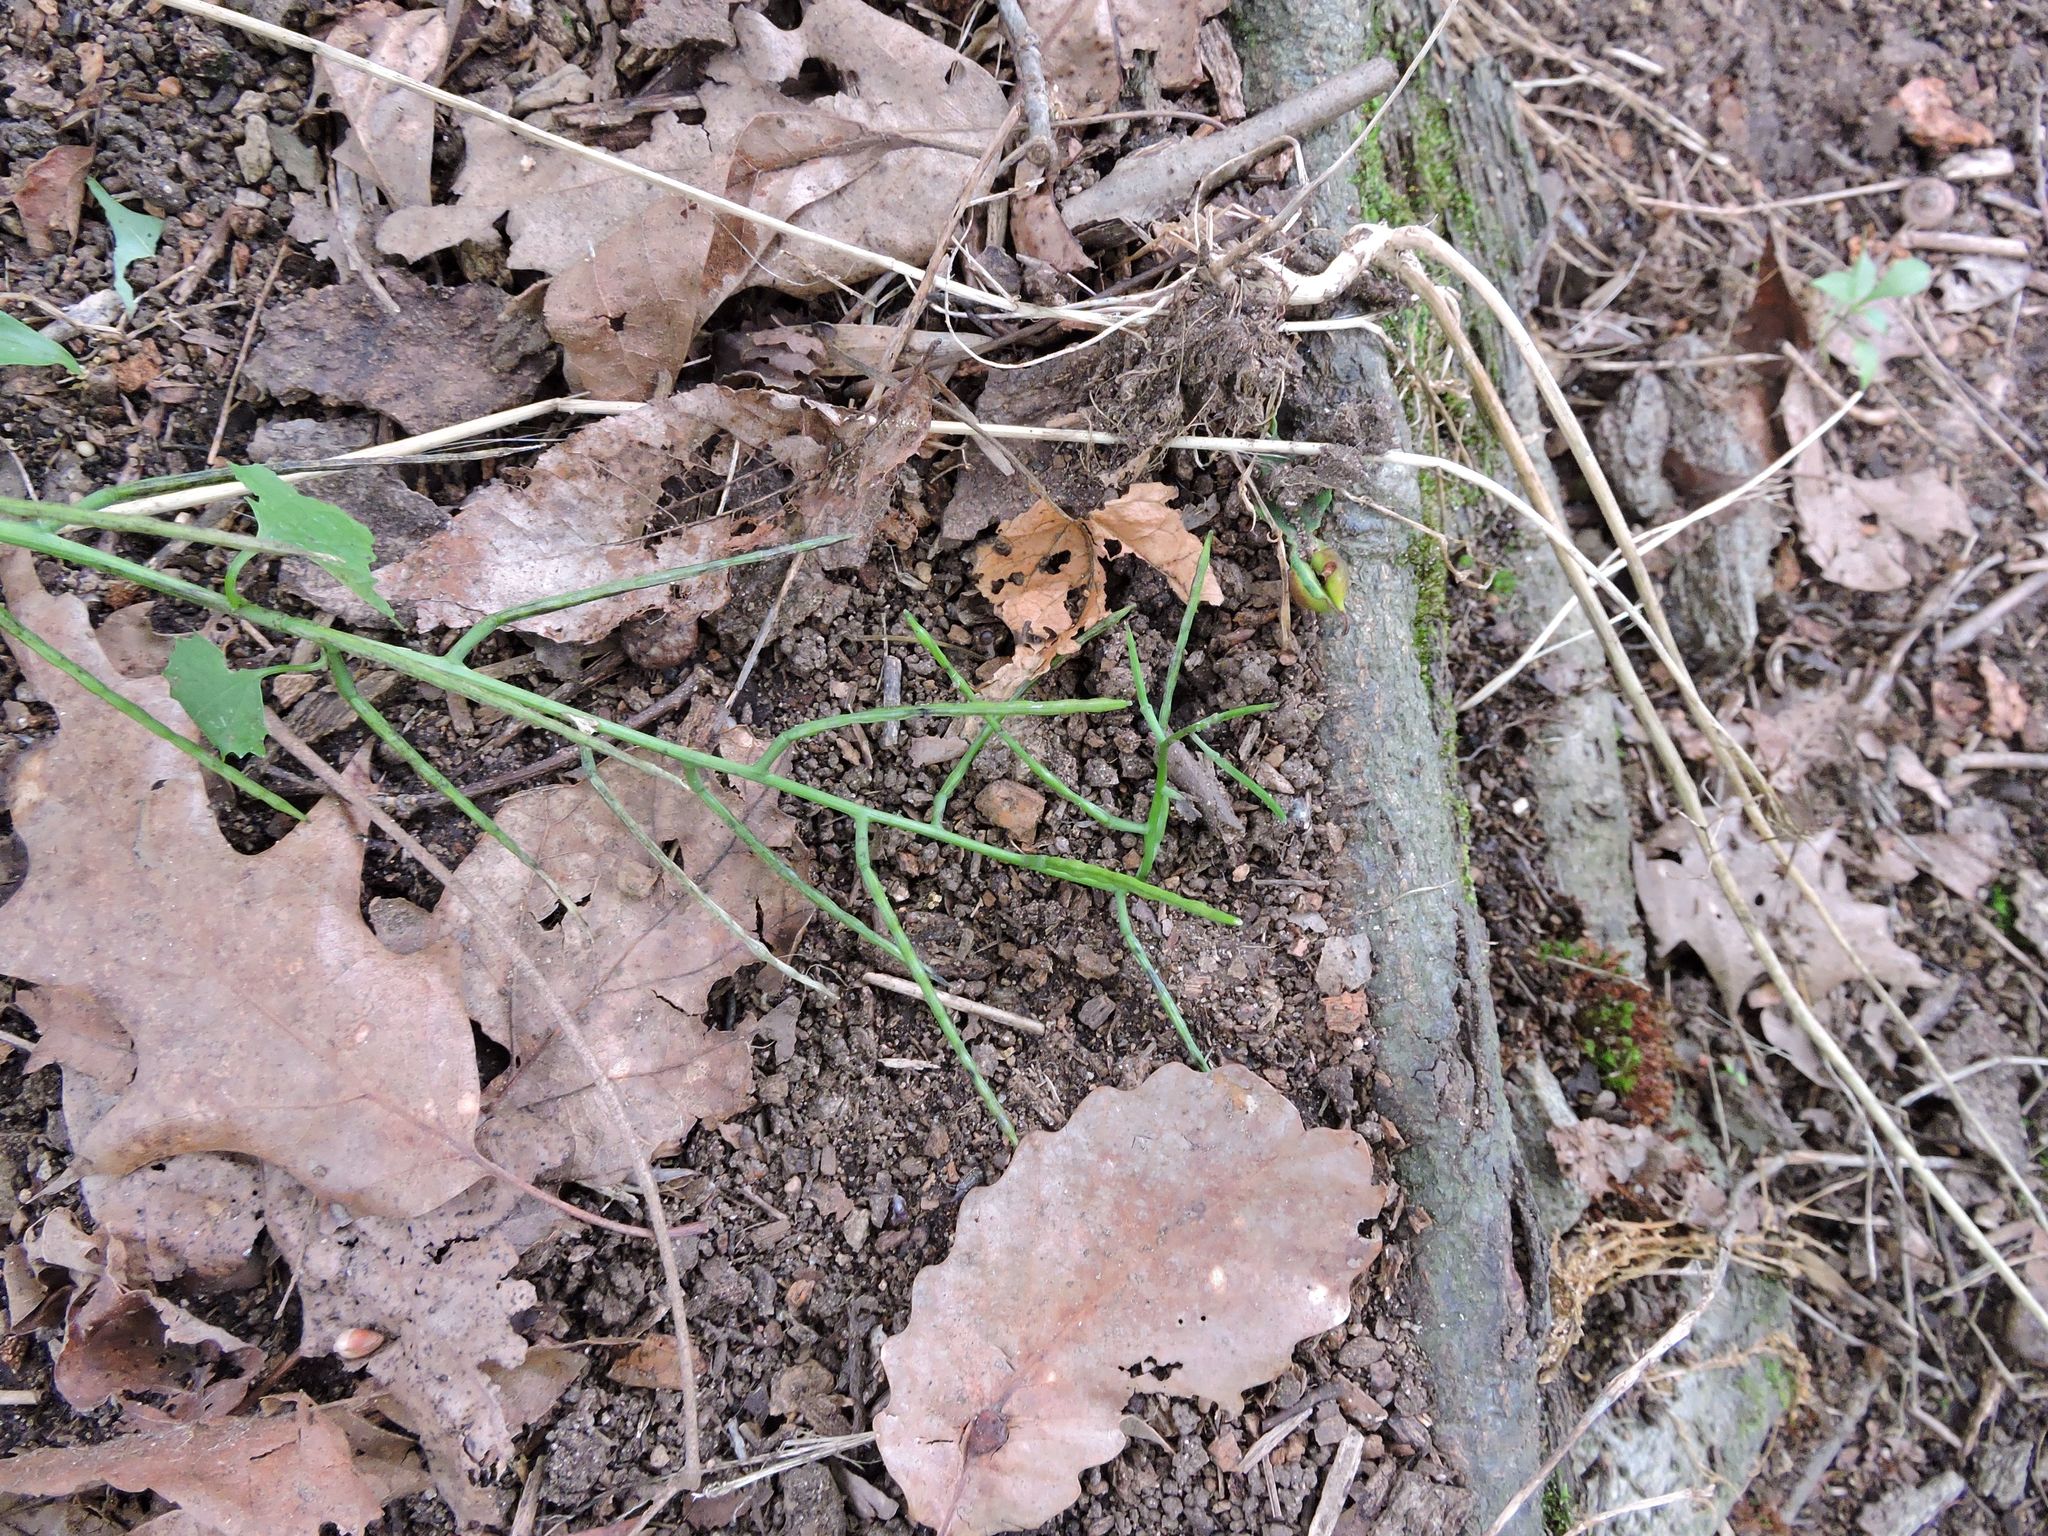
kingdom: Plantae
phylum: Tracheophyta
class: Magnoliopsida
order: Brassicales
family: Brassicaceae
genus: Alliaria
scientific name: Alliaria petiolata
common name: Garlic mustard
